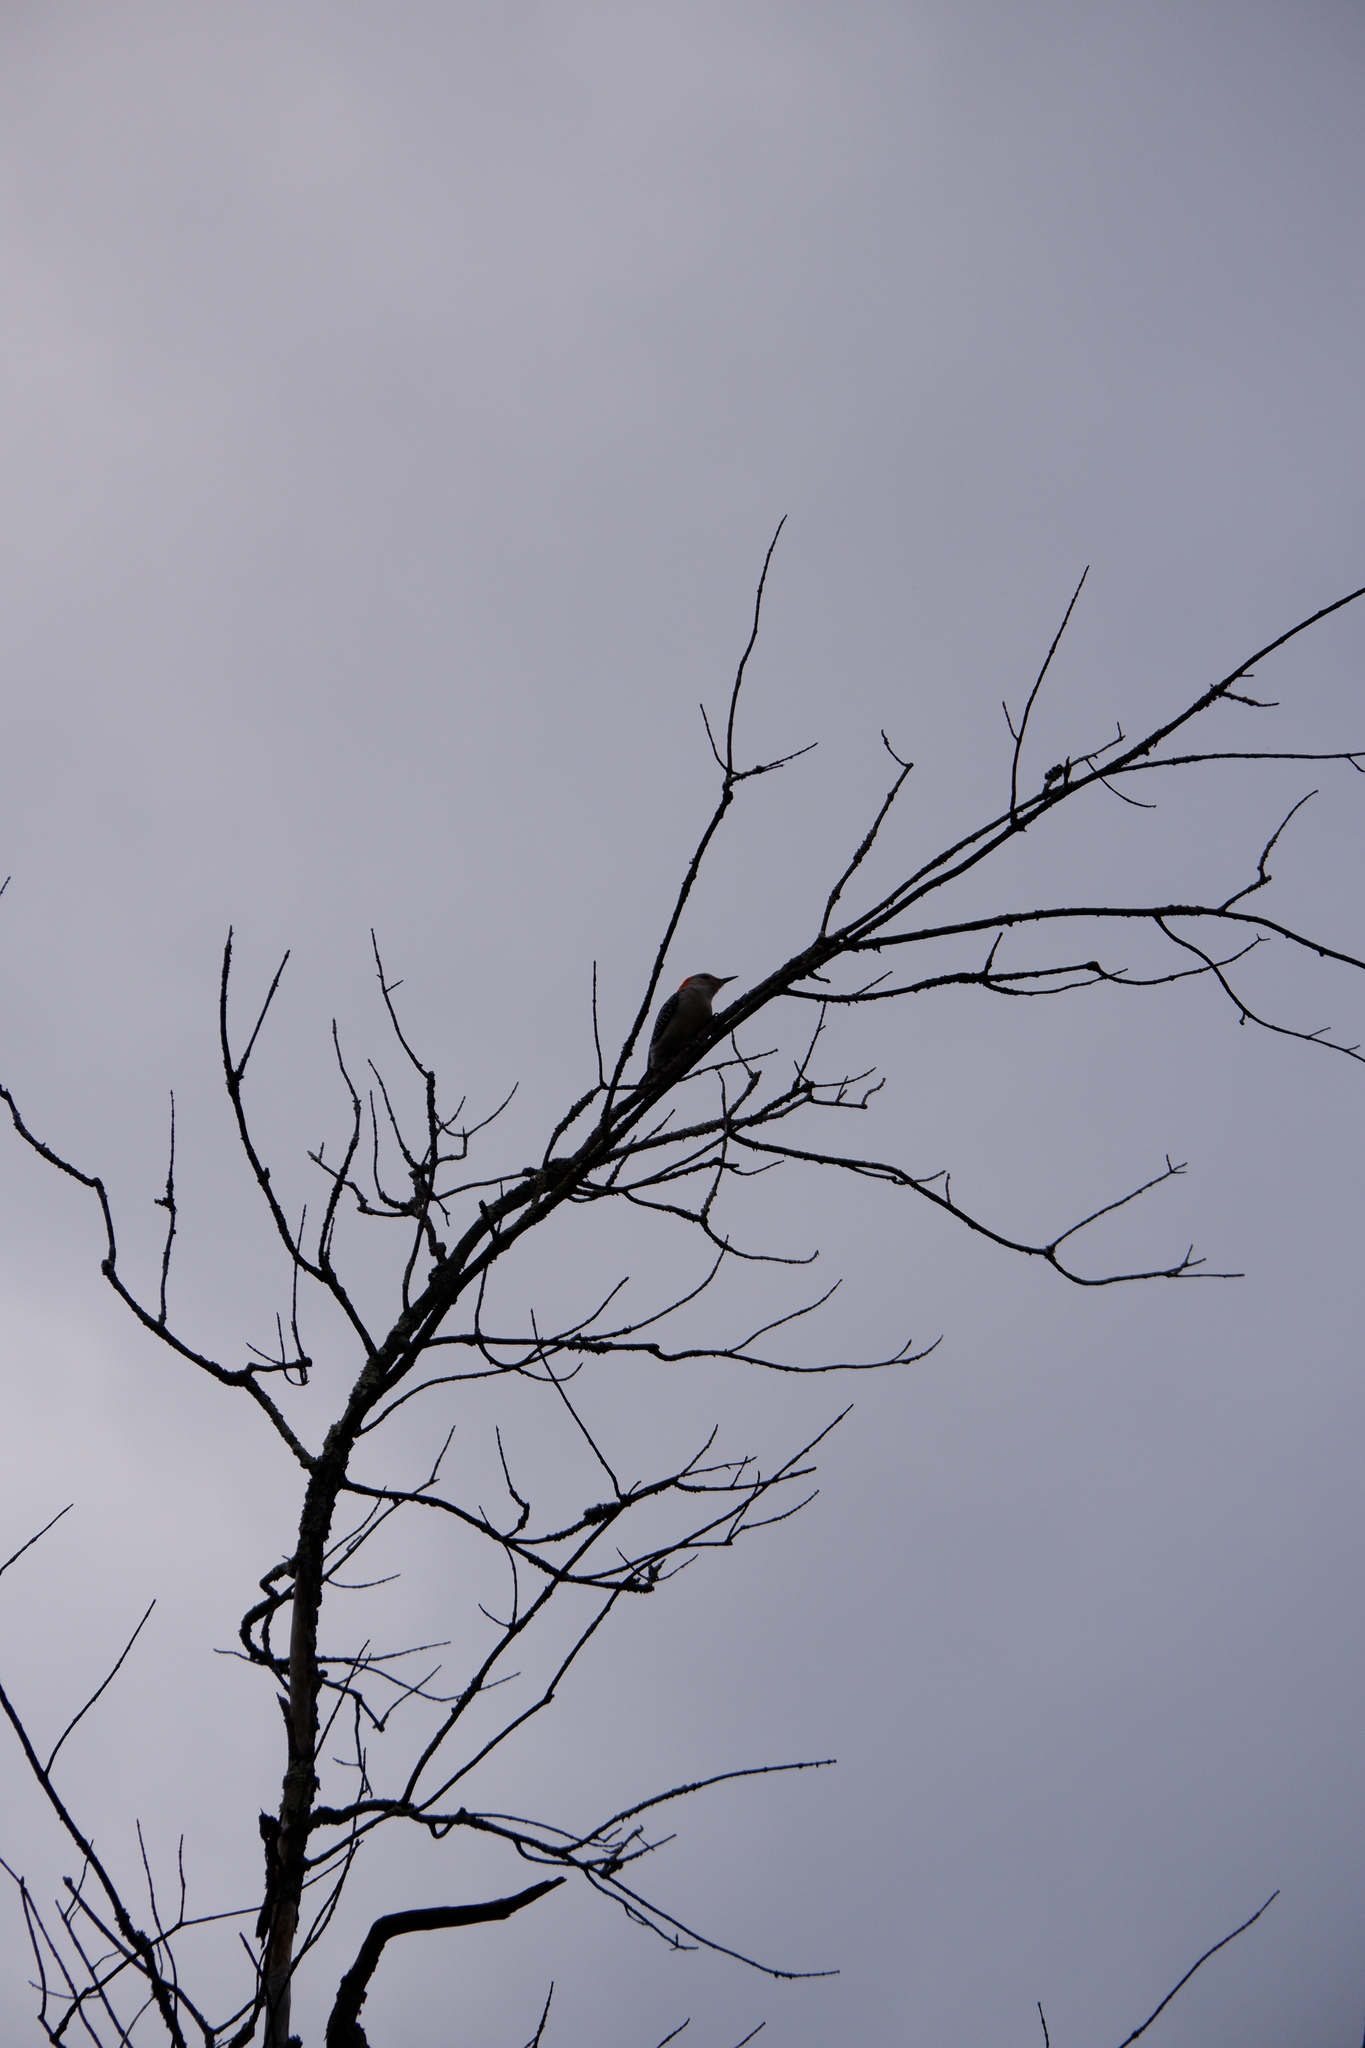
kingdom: Animalia
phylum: Chordata
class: Aves
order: Piciformes
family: Picidae
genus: Melanerpes
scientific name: Melanerpes carolinus
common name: Red-bellied woodpecker
